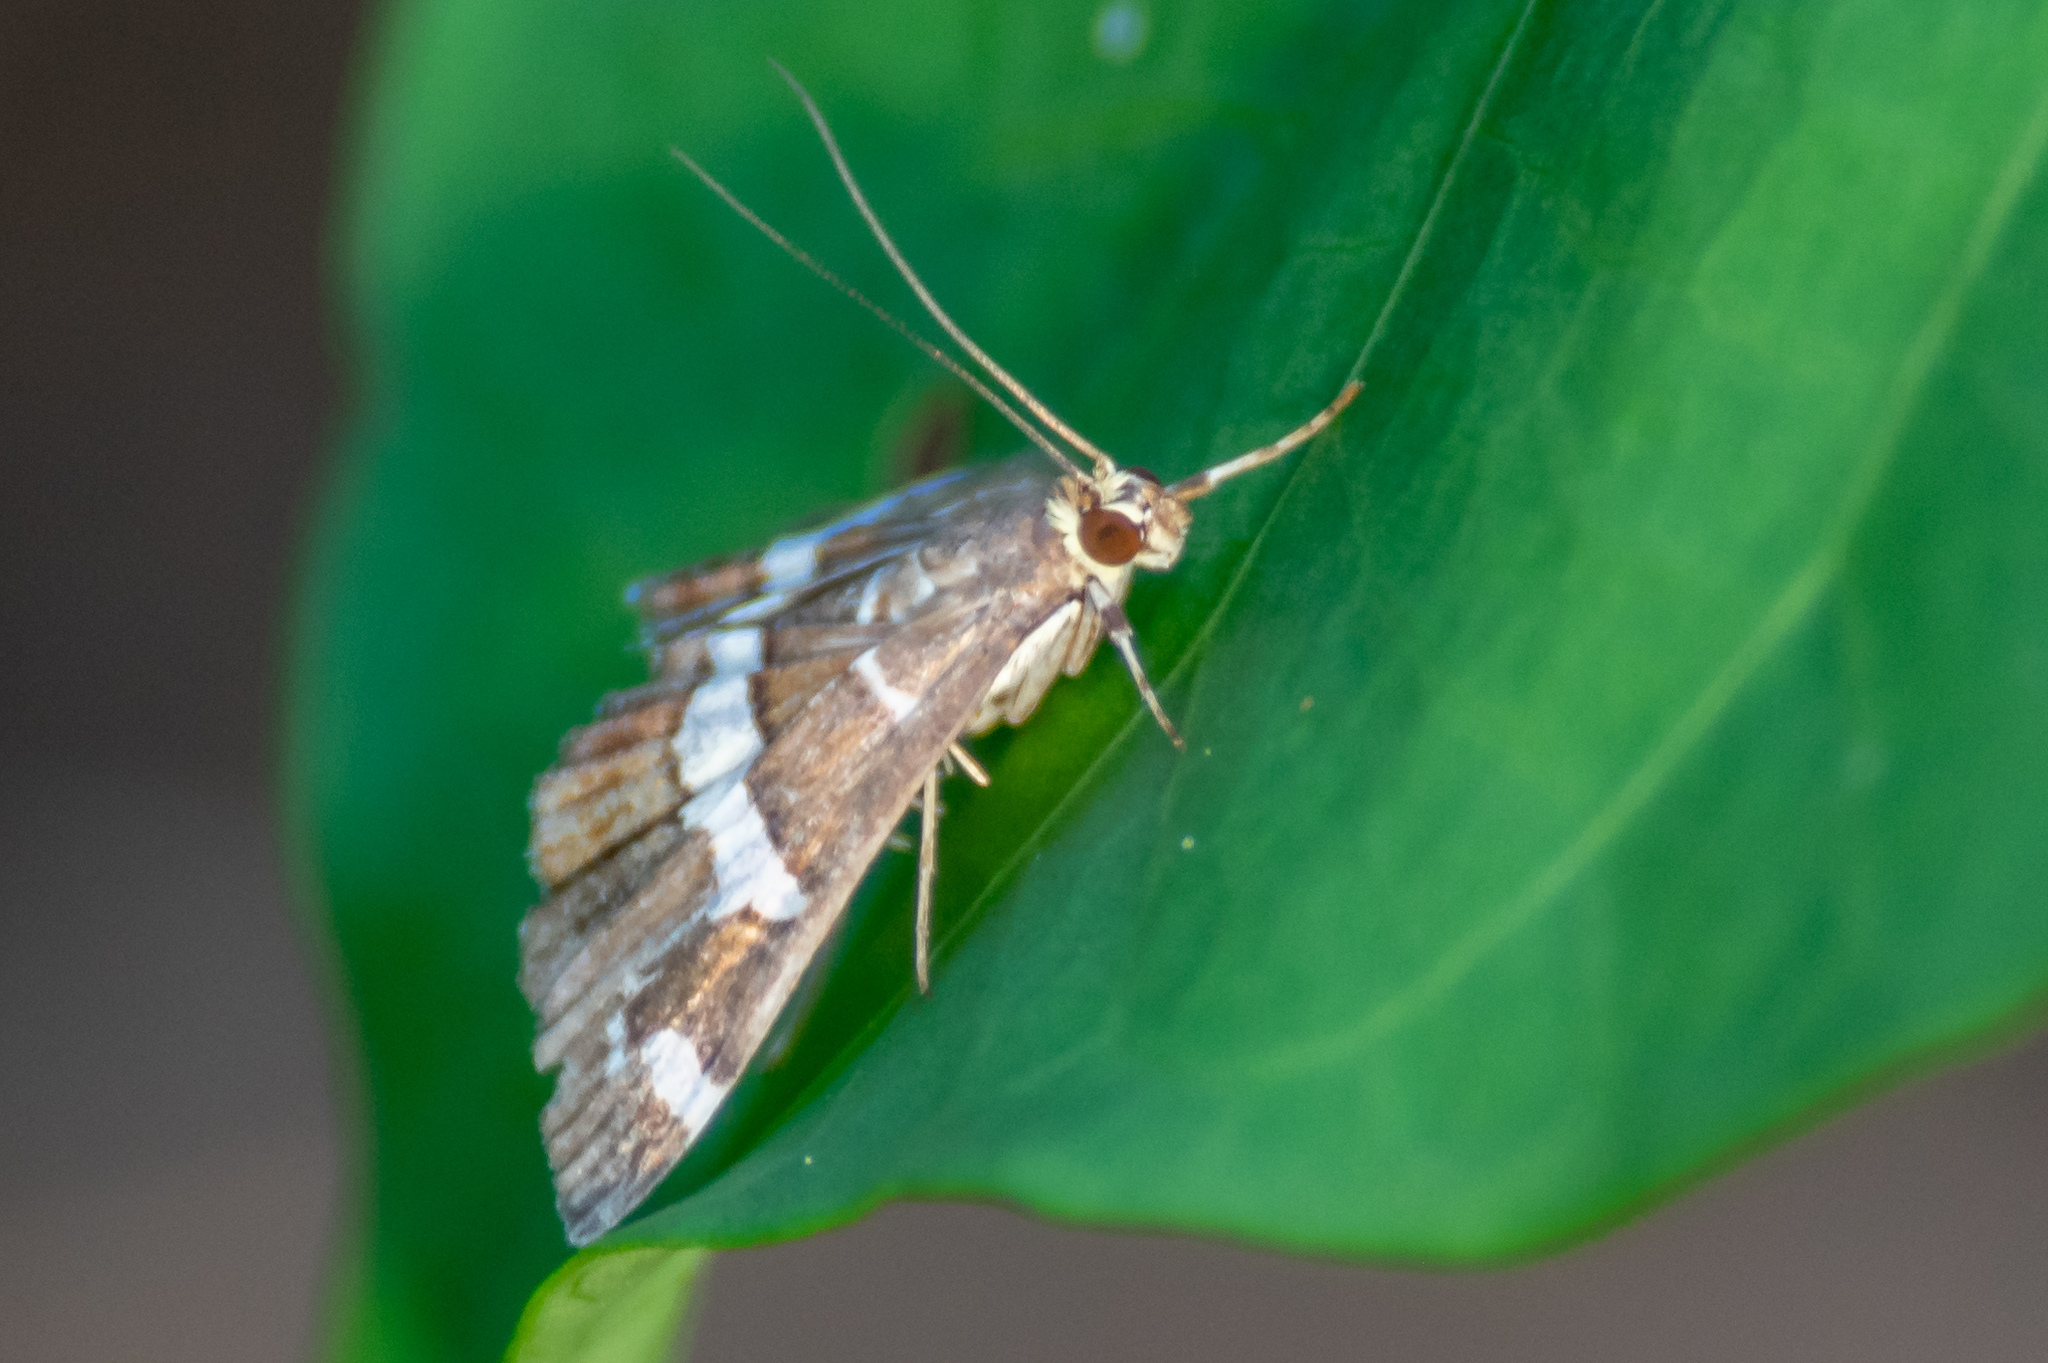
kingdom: Animalia
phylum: Arthropoda
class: Insecta
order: Lepidoptera
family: Crambidae
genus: Spoladea
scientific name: Spoladea recurvalis
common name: Beet webworm moth
